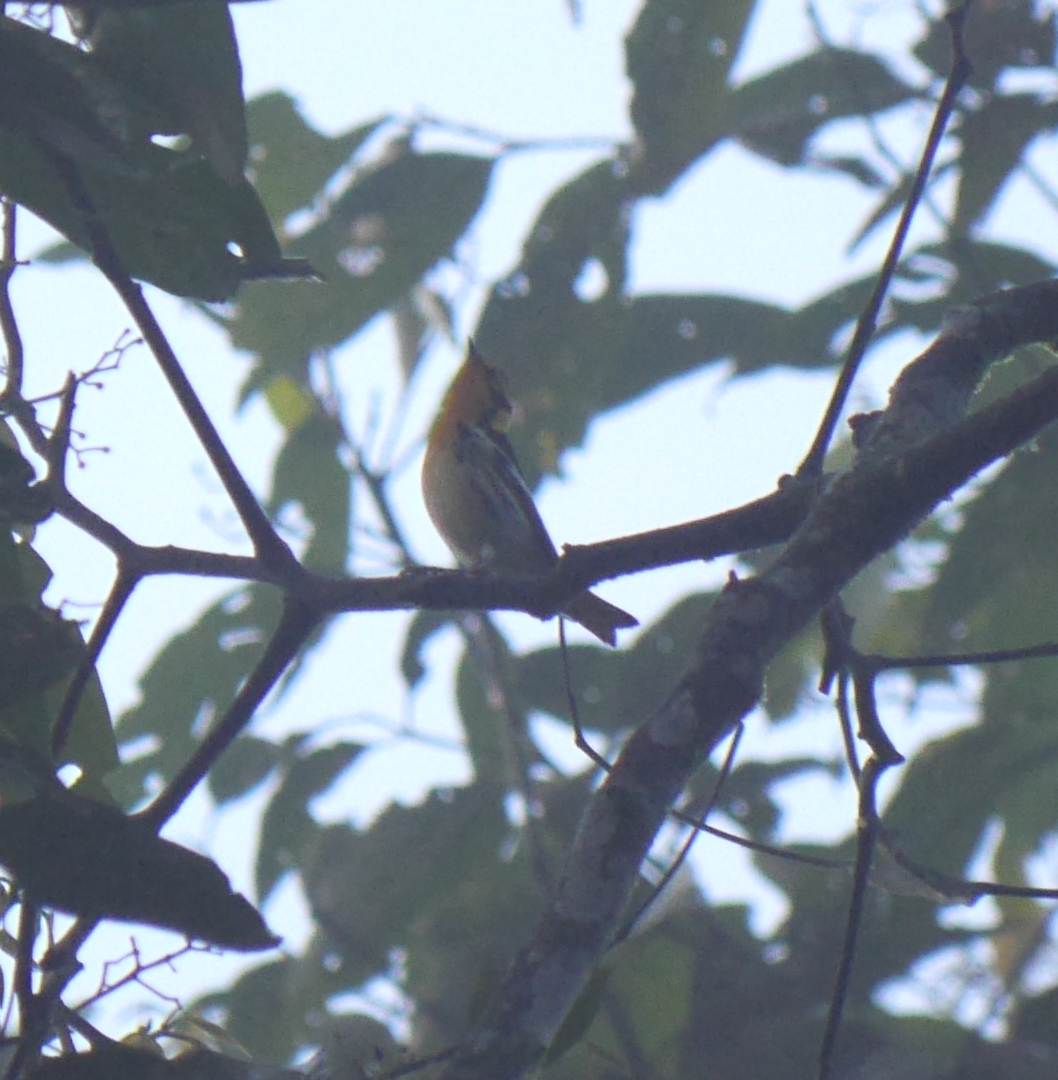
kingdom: Animalia
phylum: Chordata
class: Aves
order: Passeriformes
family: Parulidae
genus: Setophaga
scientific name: Setophaga fusca
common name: Blackburnian warbler
